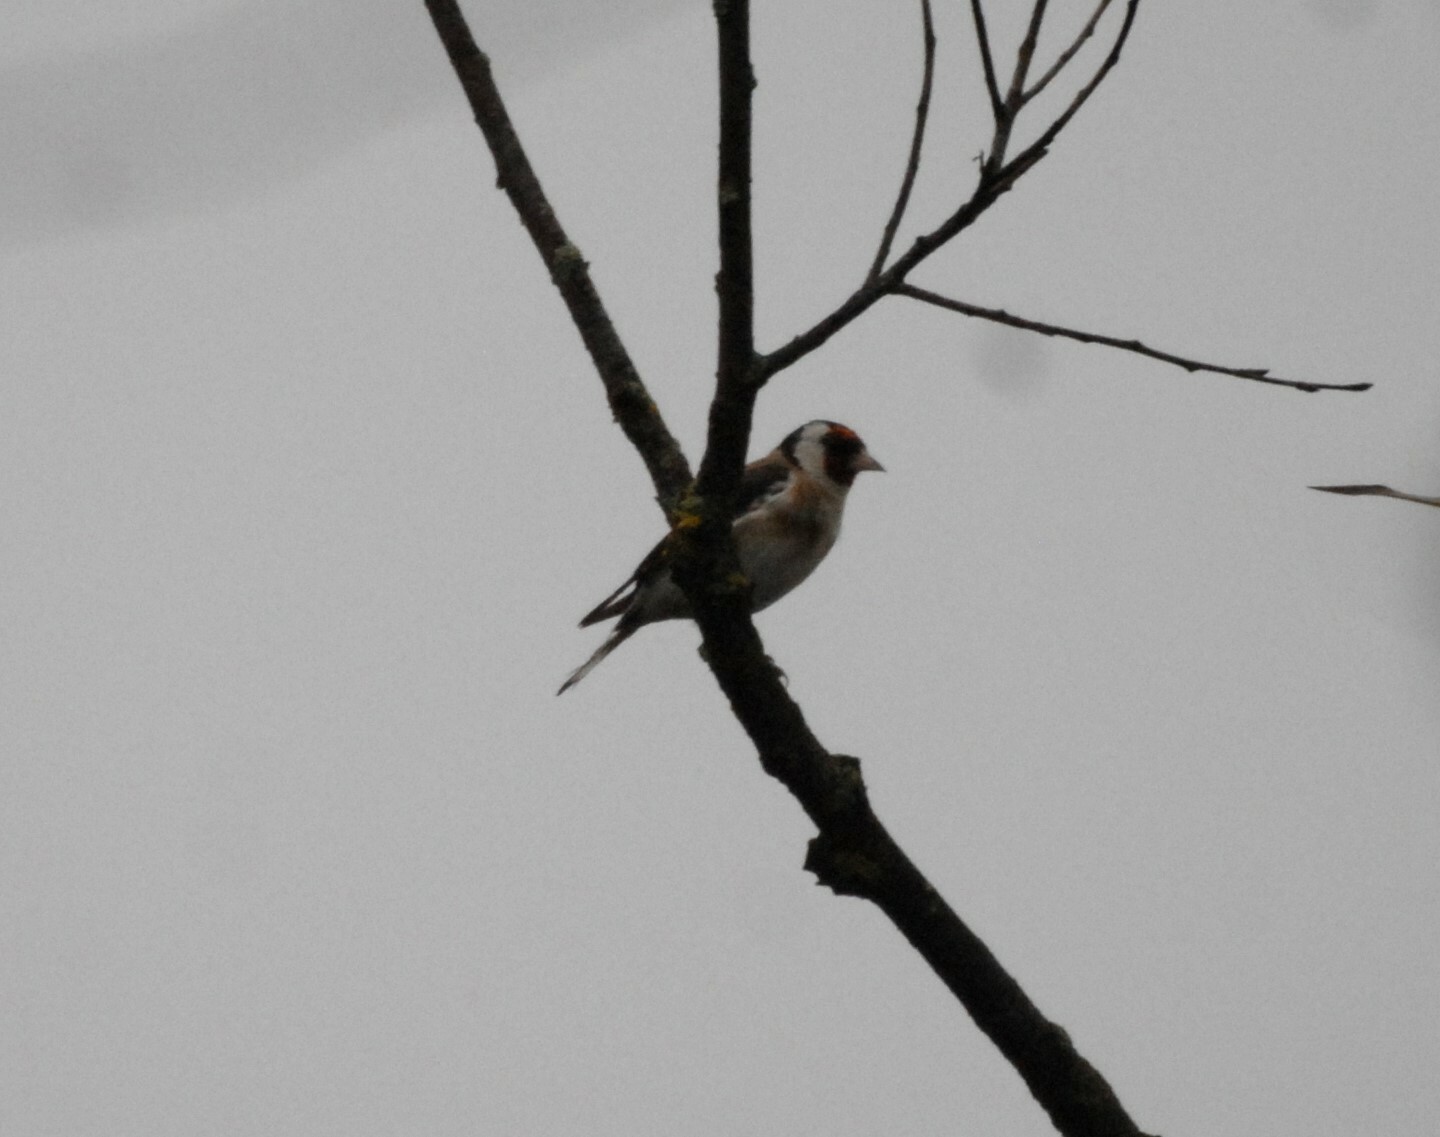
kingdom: Animalia
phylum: Chordata
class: Aves
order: Passeriformes
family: Fringillidae
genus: Carduelis
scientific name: Carduelis carduelis
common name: European goldfinch
